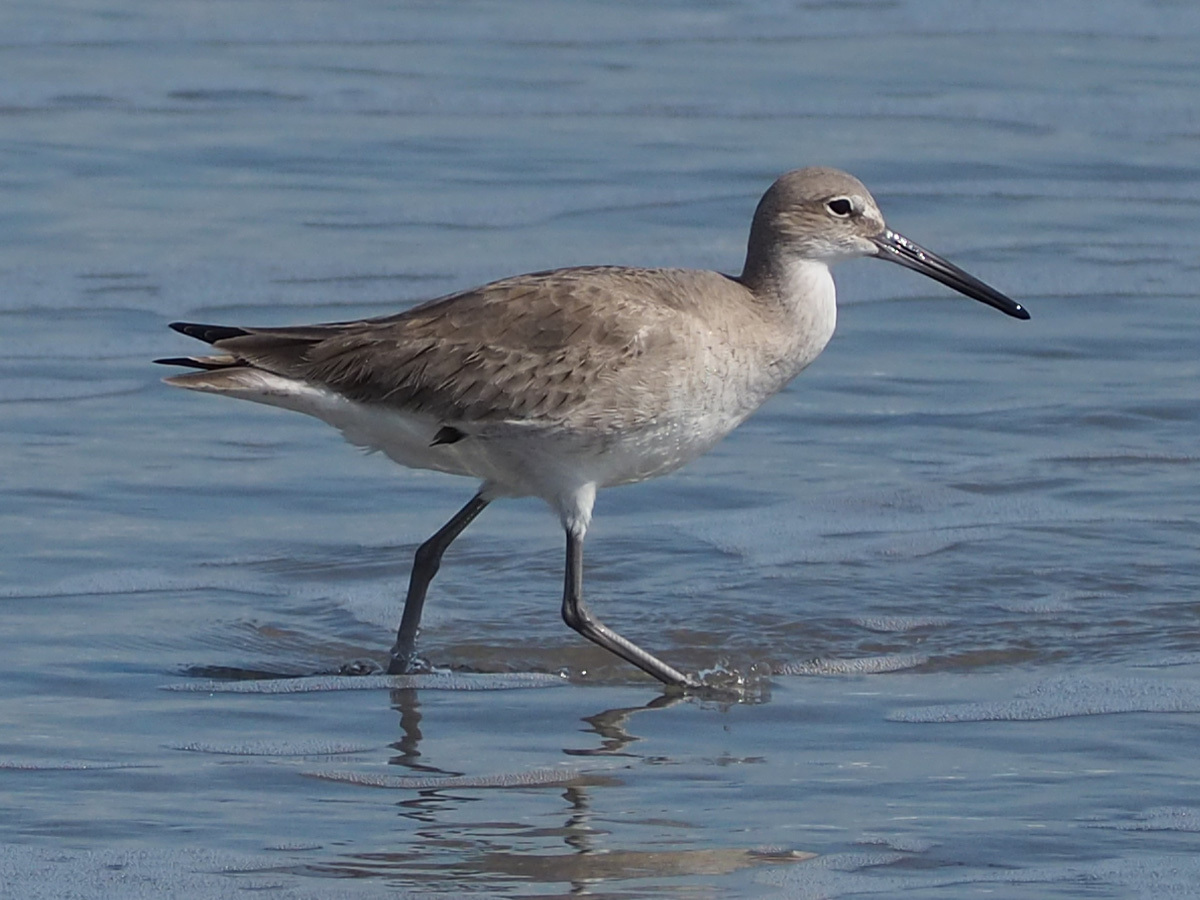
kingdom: Animalia
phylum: Chordata
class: Aves
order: Charadriiformes
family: Scolopacidae
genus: Tringa
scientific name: Tringa semipalmata
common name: Willet
